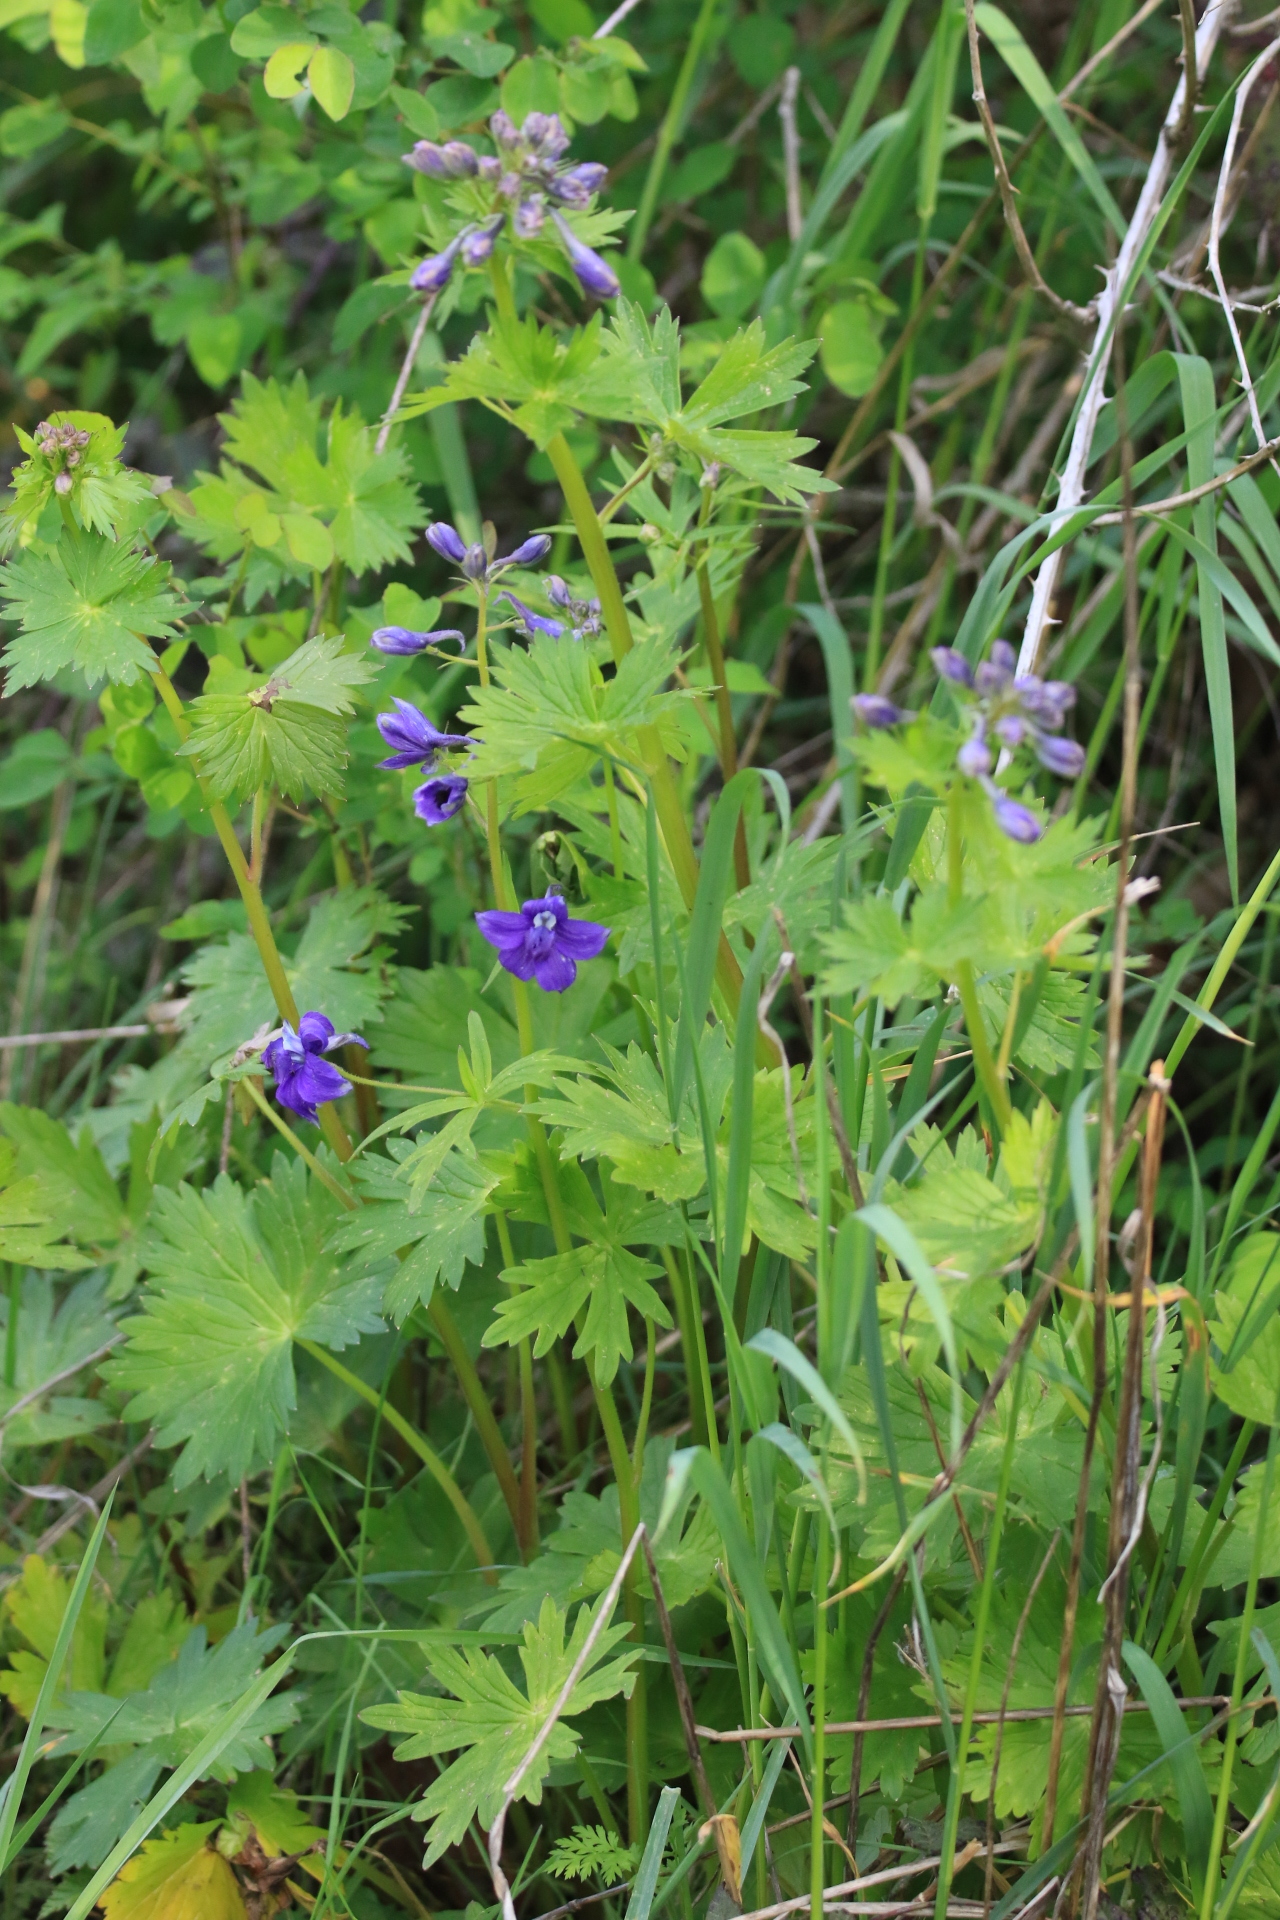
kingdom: Plantae
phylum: Tracheophyta
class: Magnoliopsida
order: Ranunculales
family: Ranunculaceae
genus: Delphinium
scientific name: Delphinium trolliifolium
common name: Cow-poison
